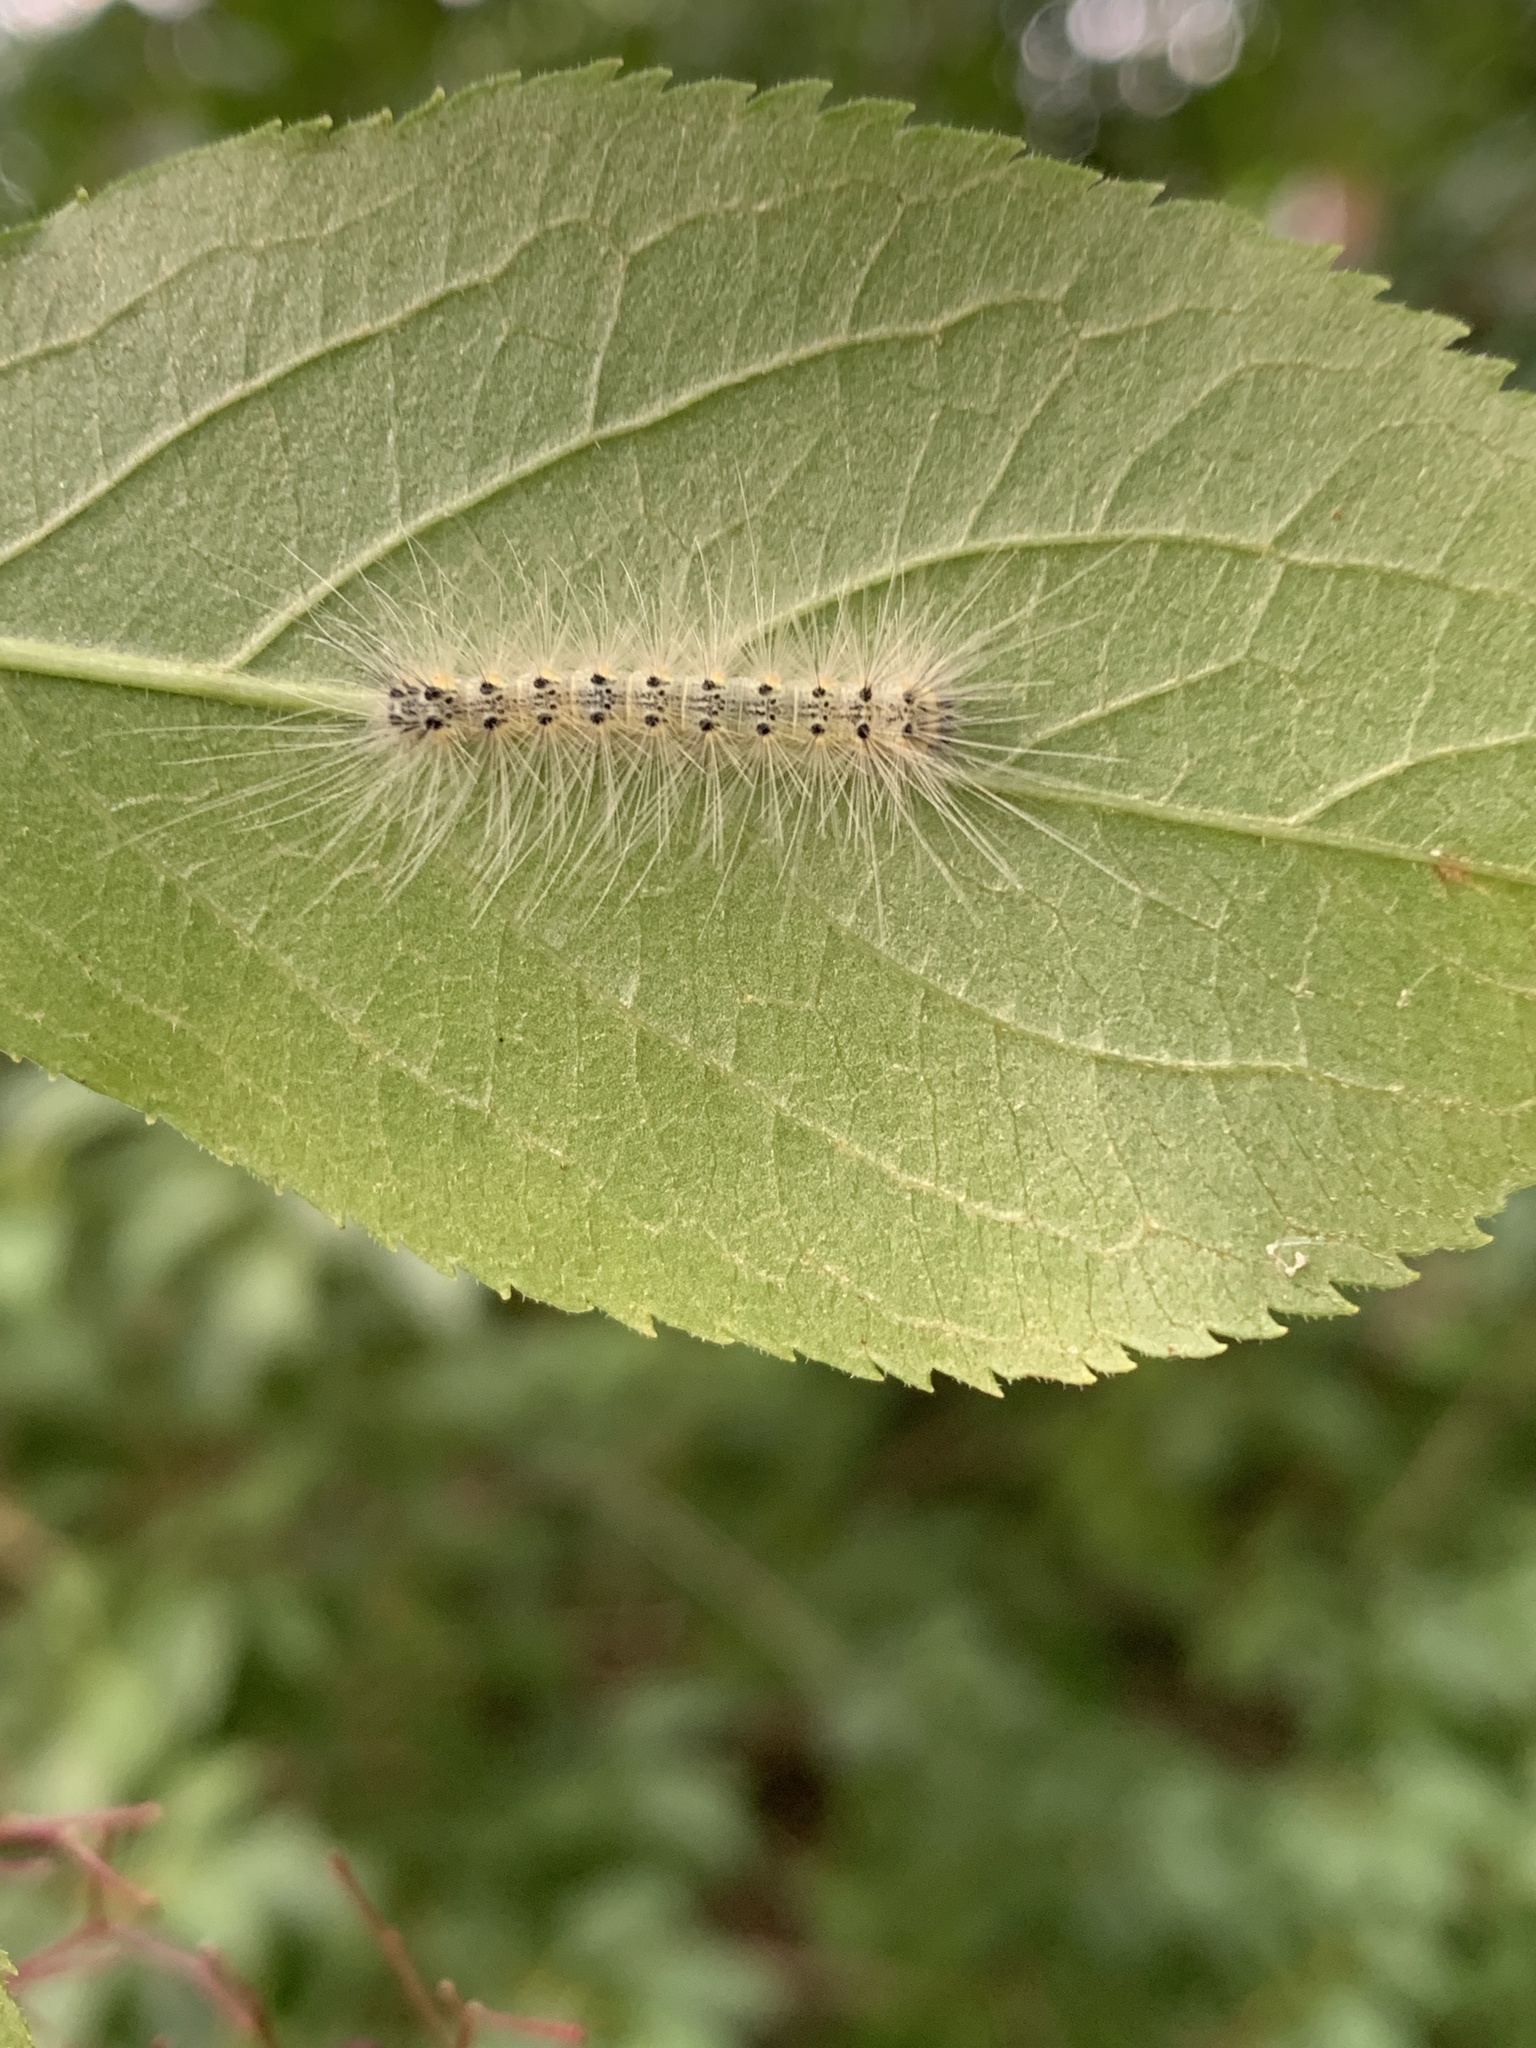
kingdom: Animalia
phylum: Arthropoda
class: Insecta
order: Lepidoptera
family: Erebidae
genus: Hyphantria
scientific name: Hyphantria cunea
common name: American white moth
